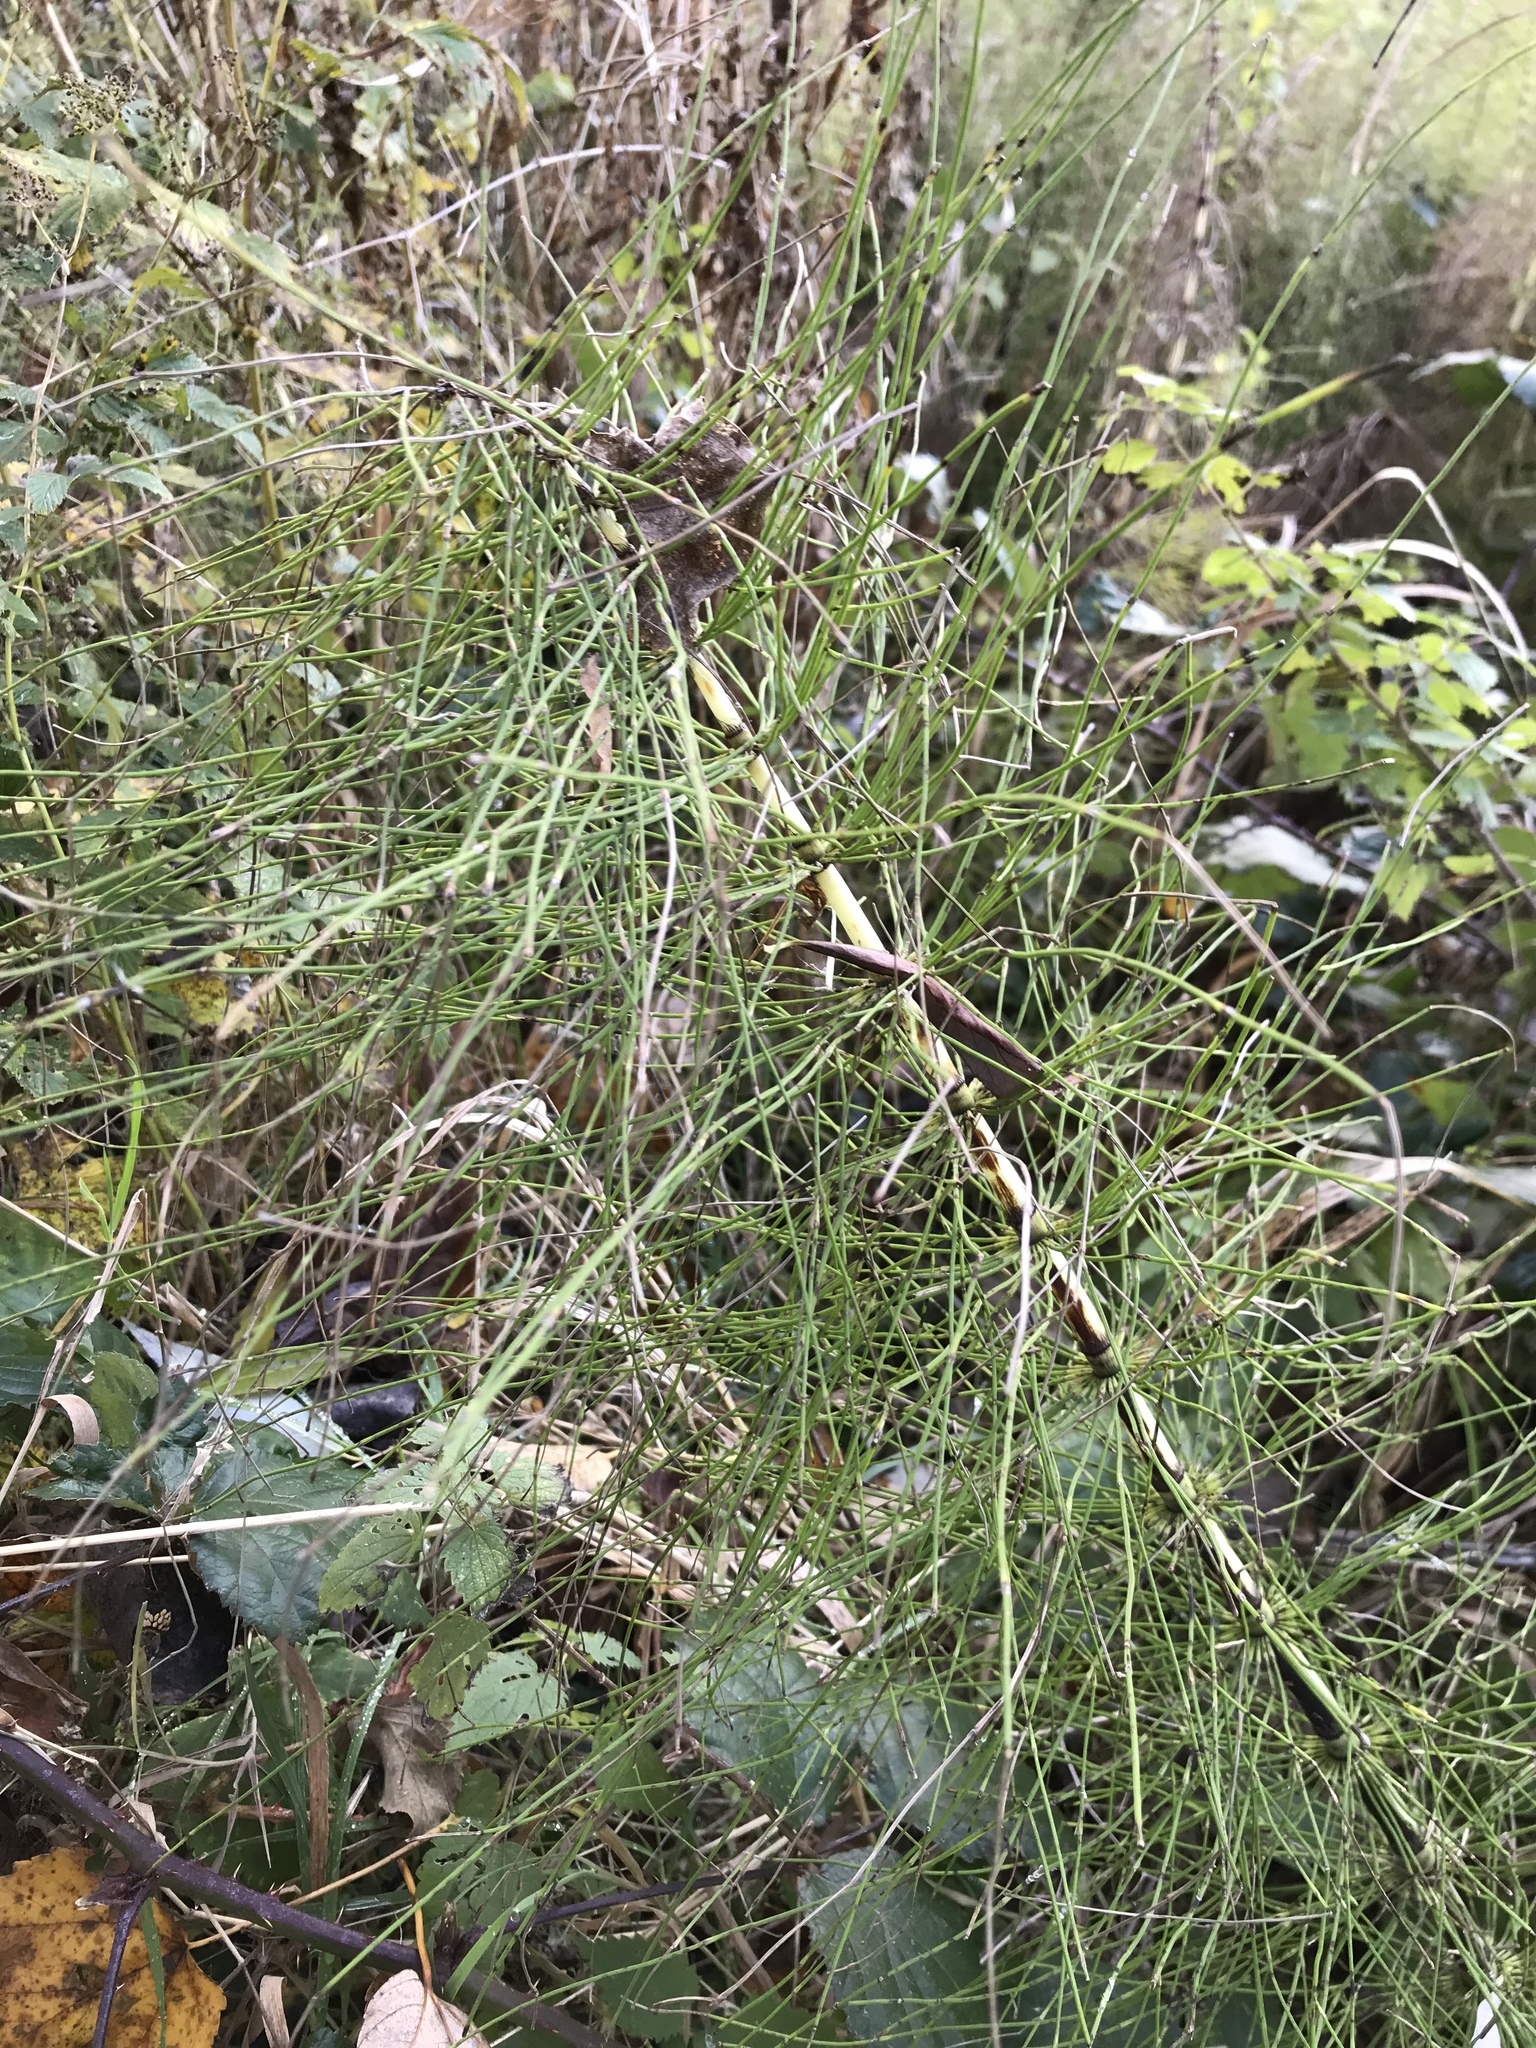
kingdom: Plantae
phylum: Tracheophyta
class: Polypodiopsida
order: Equisetales
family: Equisetaceae
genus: Equisetum
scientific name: Equisetum telmateia
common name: Great horsetail
